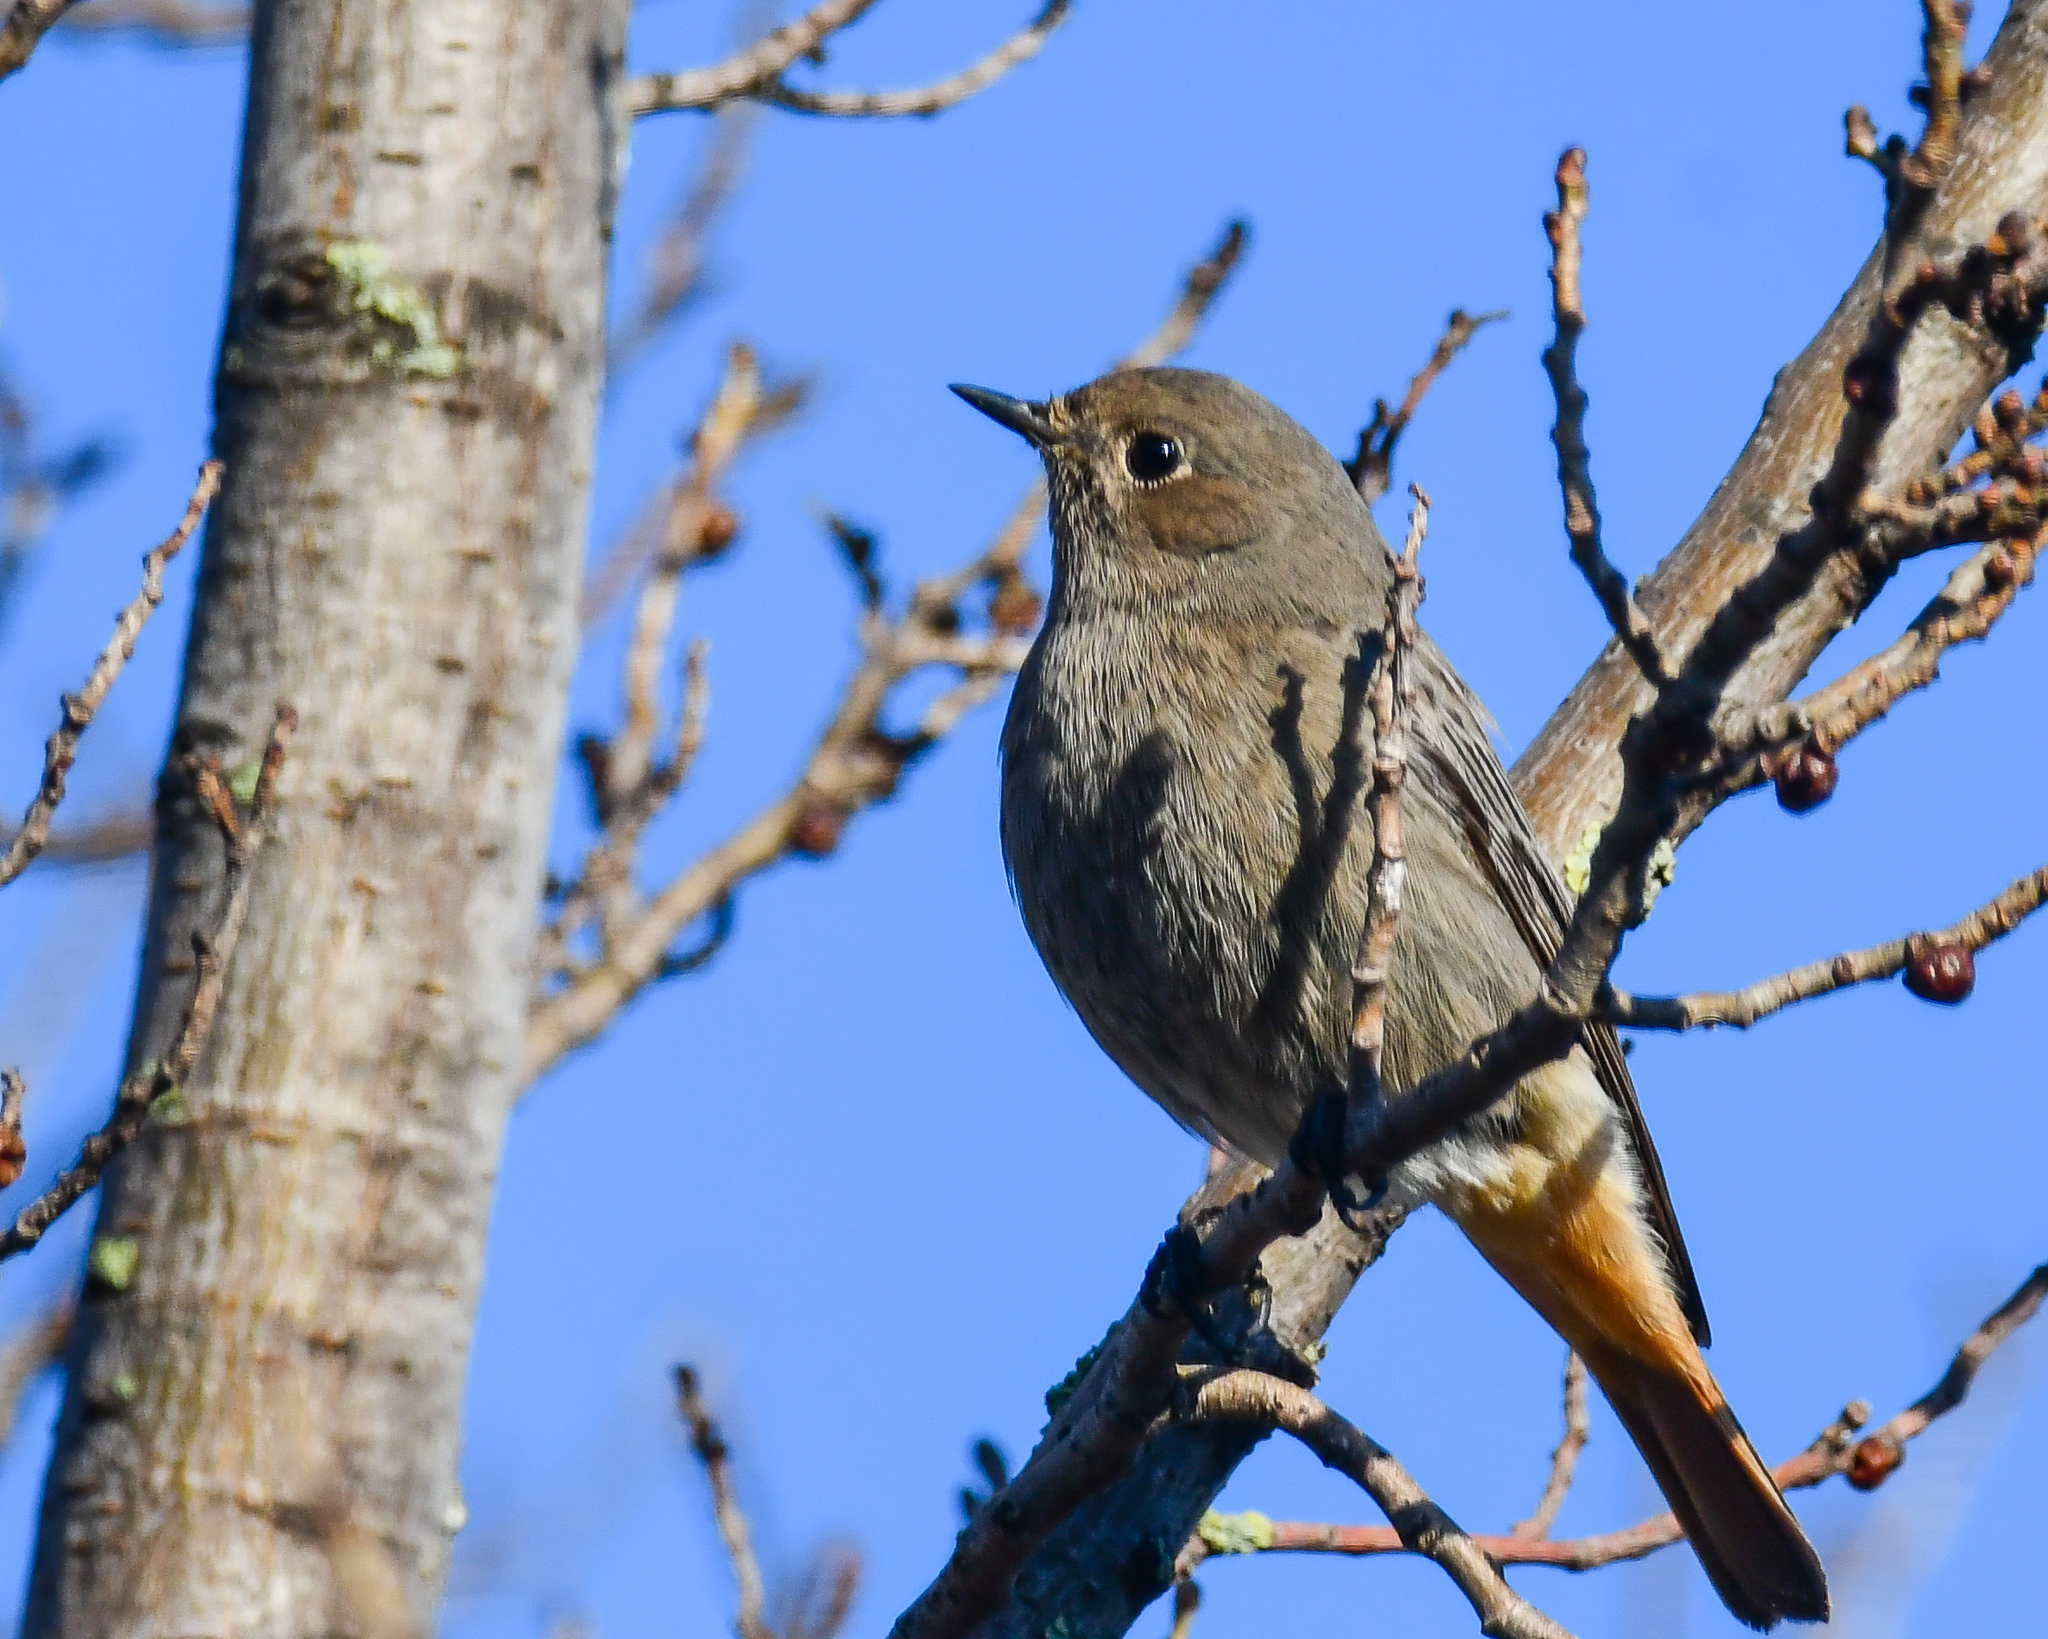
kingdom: Animalia
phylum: Chordata
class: Aves
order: Passeriformes
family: Muscicapidae
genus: Phoenicurus
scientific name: Phoenicurus ochruros
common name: Black redstart
